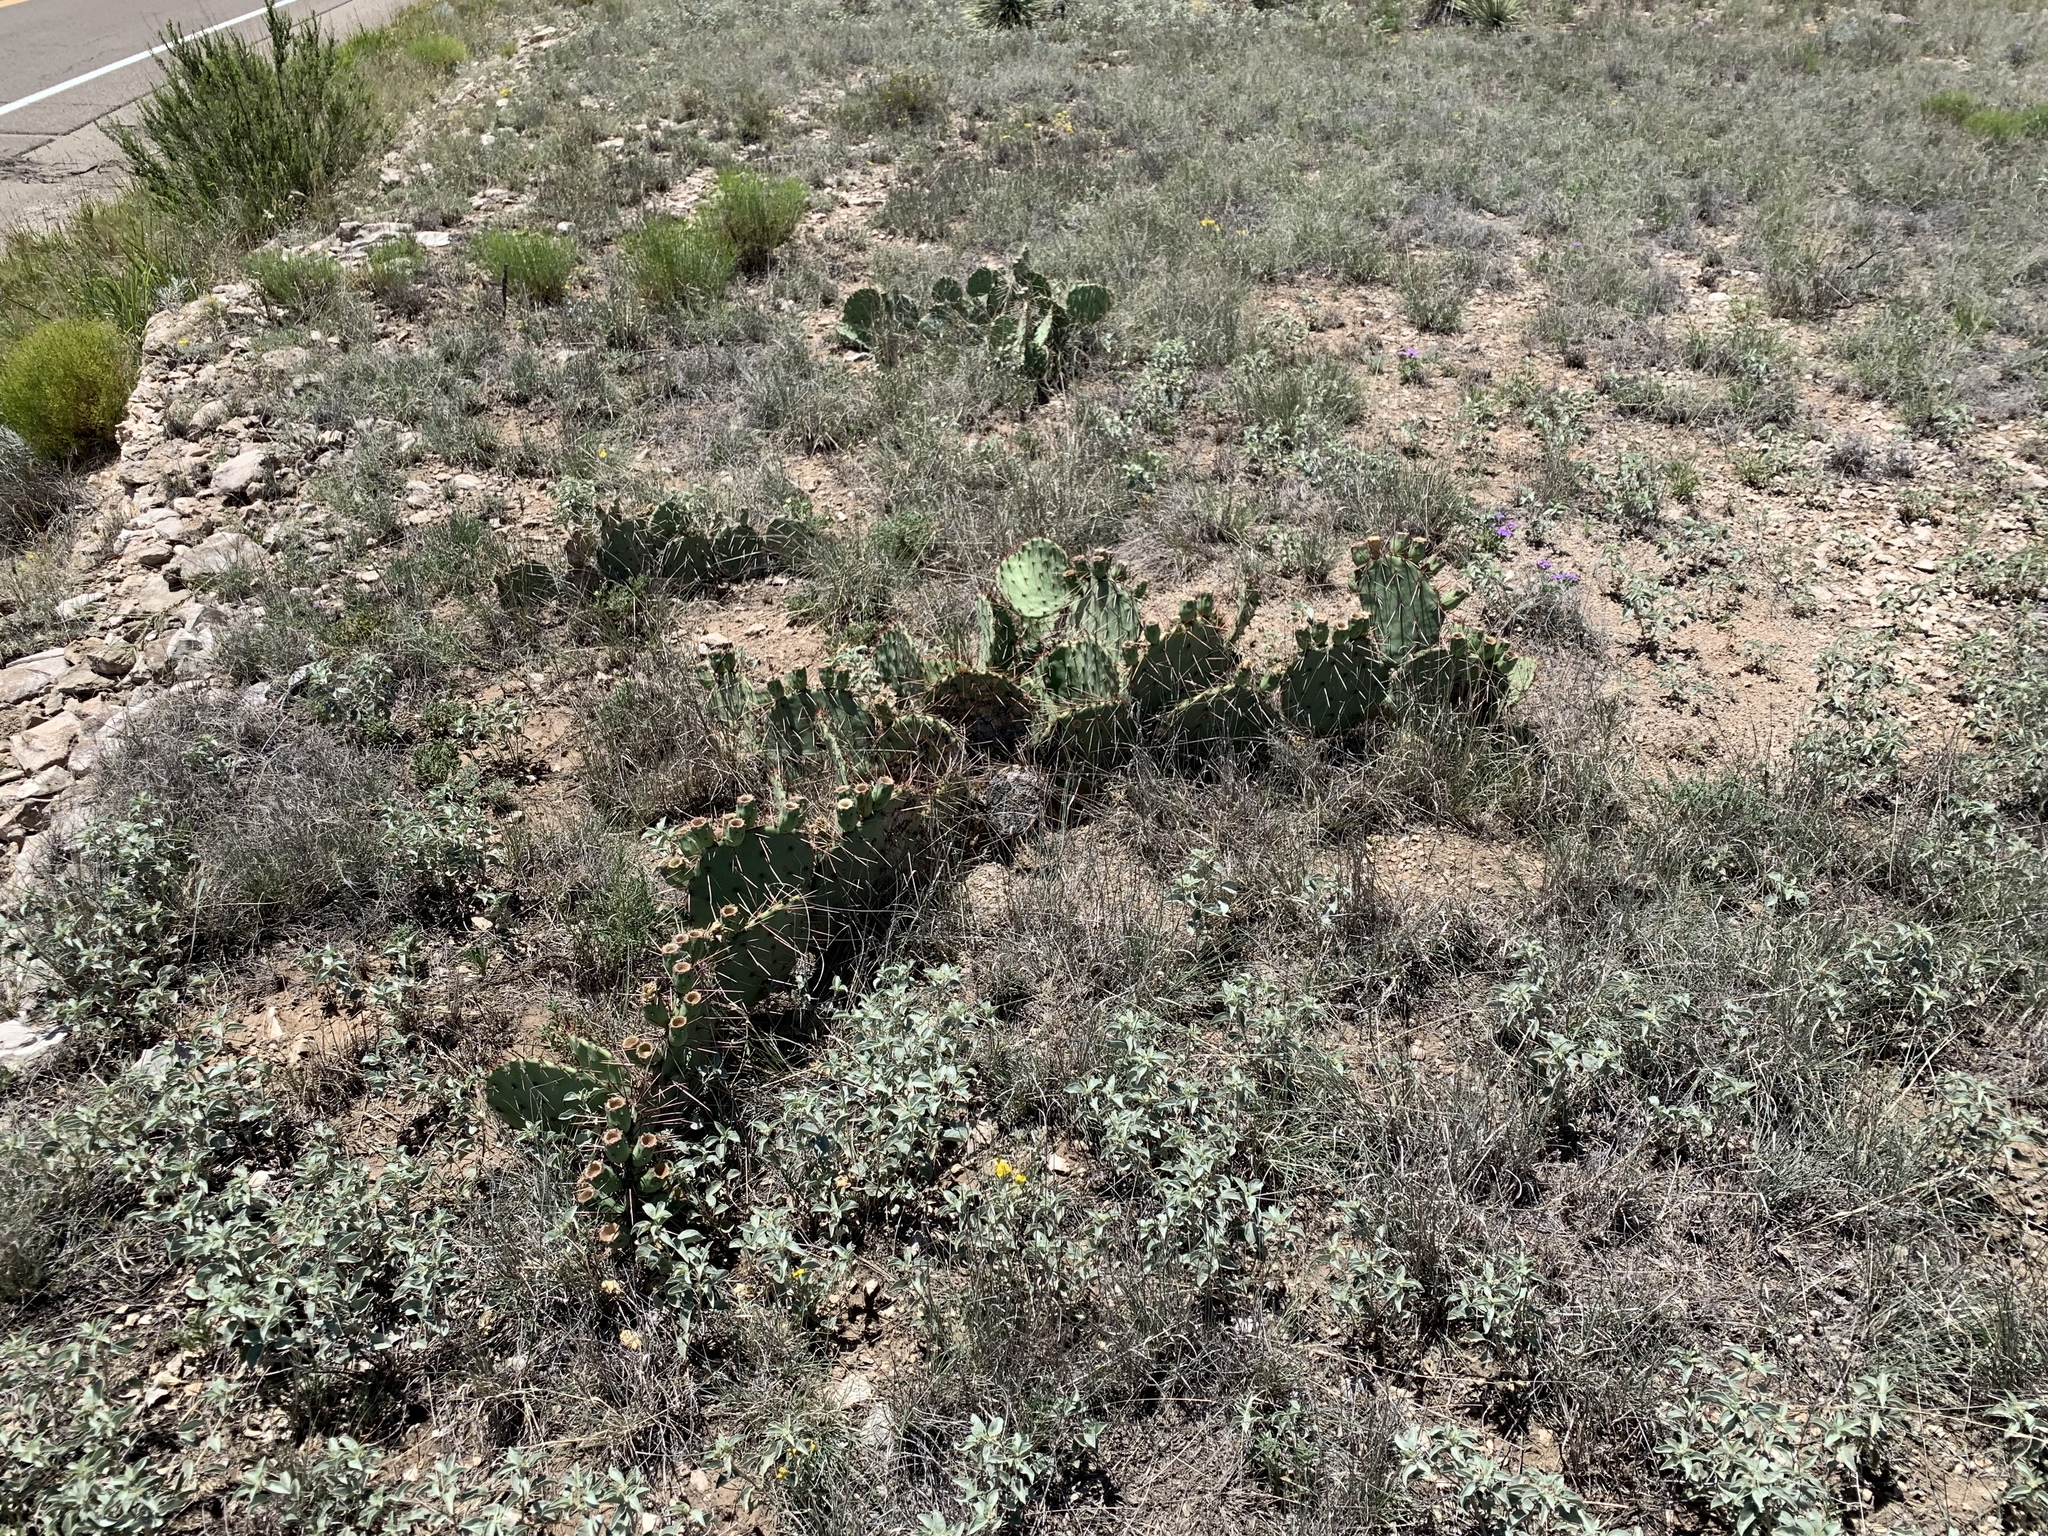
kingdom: Plantae
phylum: Tracheophyta
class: Magnoliopsida
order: Caryophyllales
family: Cactaceae
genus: Opuntia
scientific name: Opuntia phaeacantha
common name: New mexico prickly-pear
